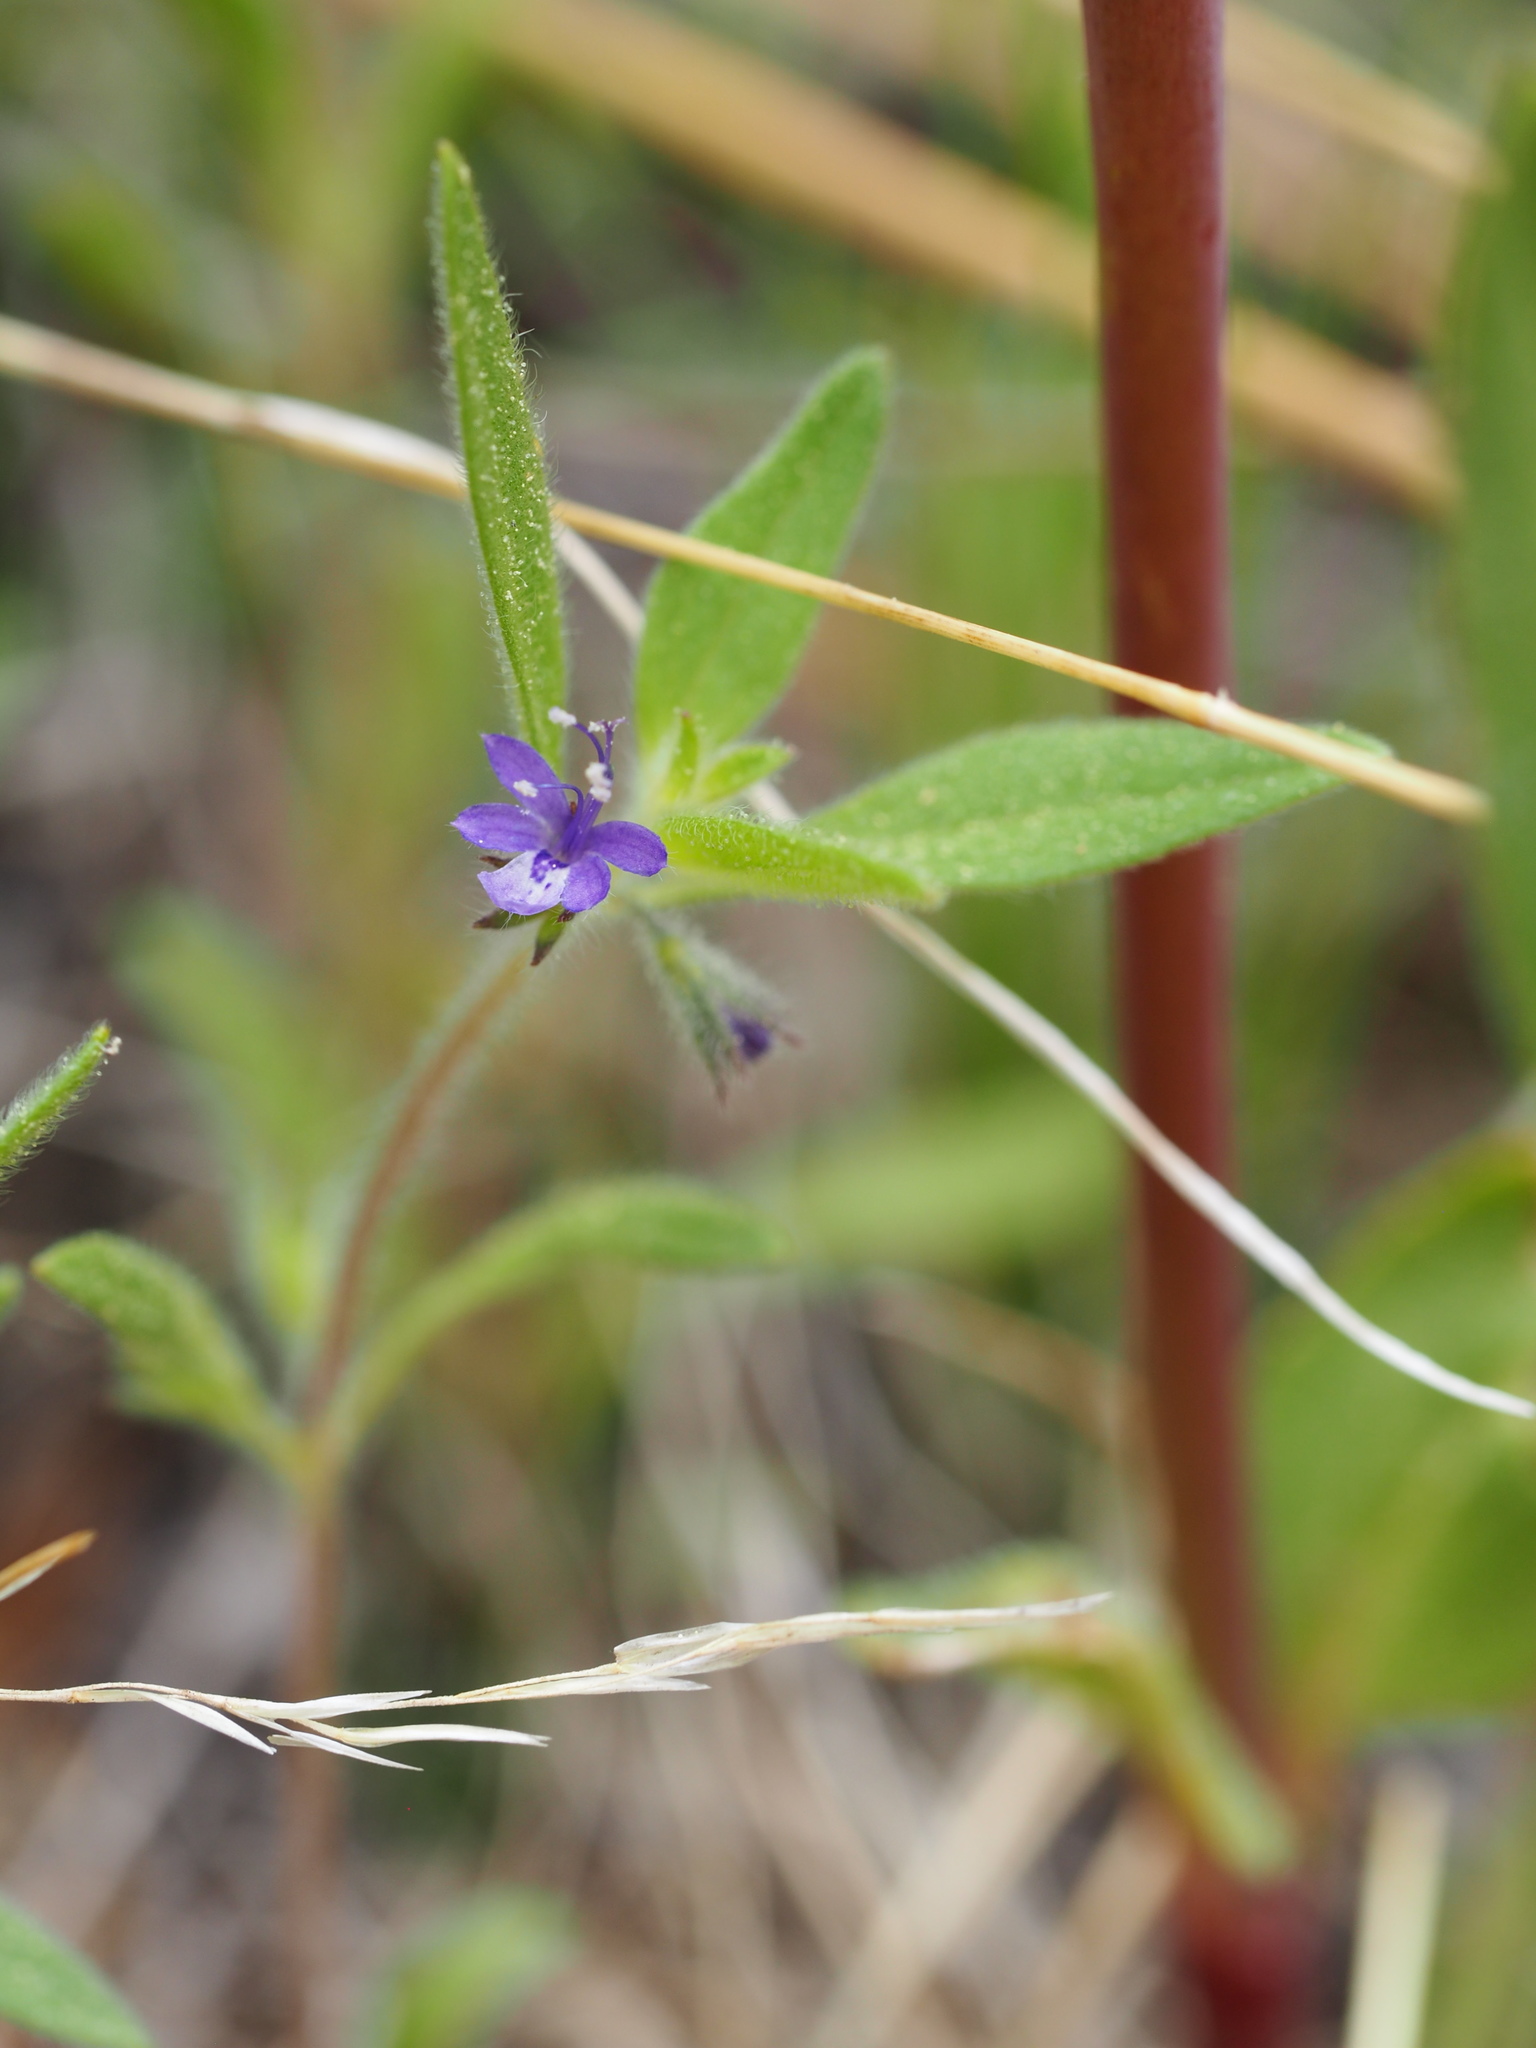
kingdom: Plantae
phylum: Tracheophyta
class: Magnoliopsida
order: Lamiales
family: Lamiaceae
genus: Trichostema
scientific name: Trichostema austromontanum
